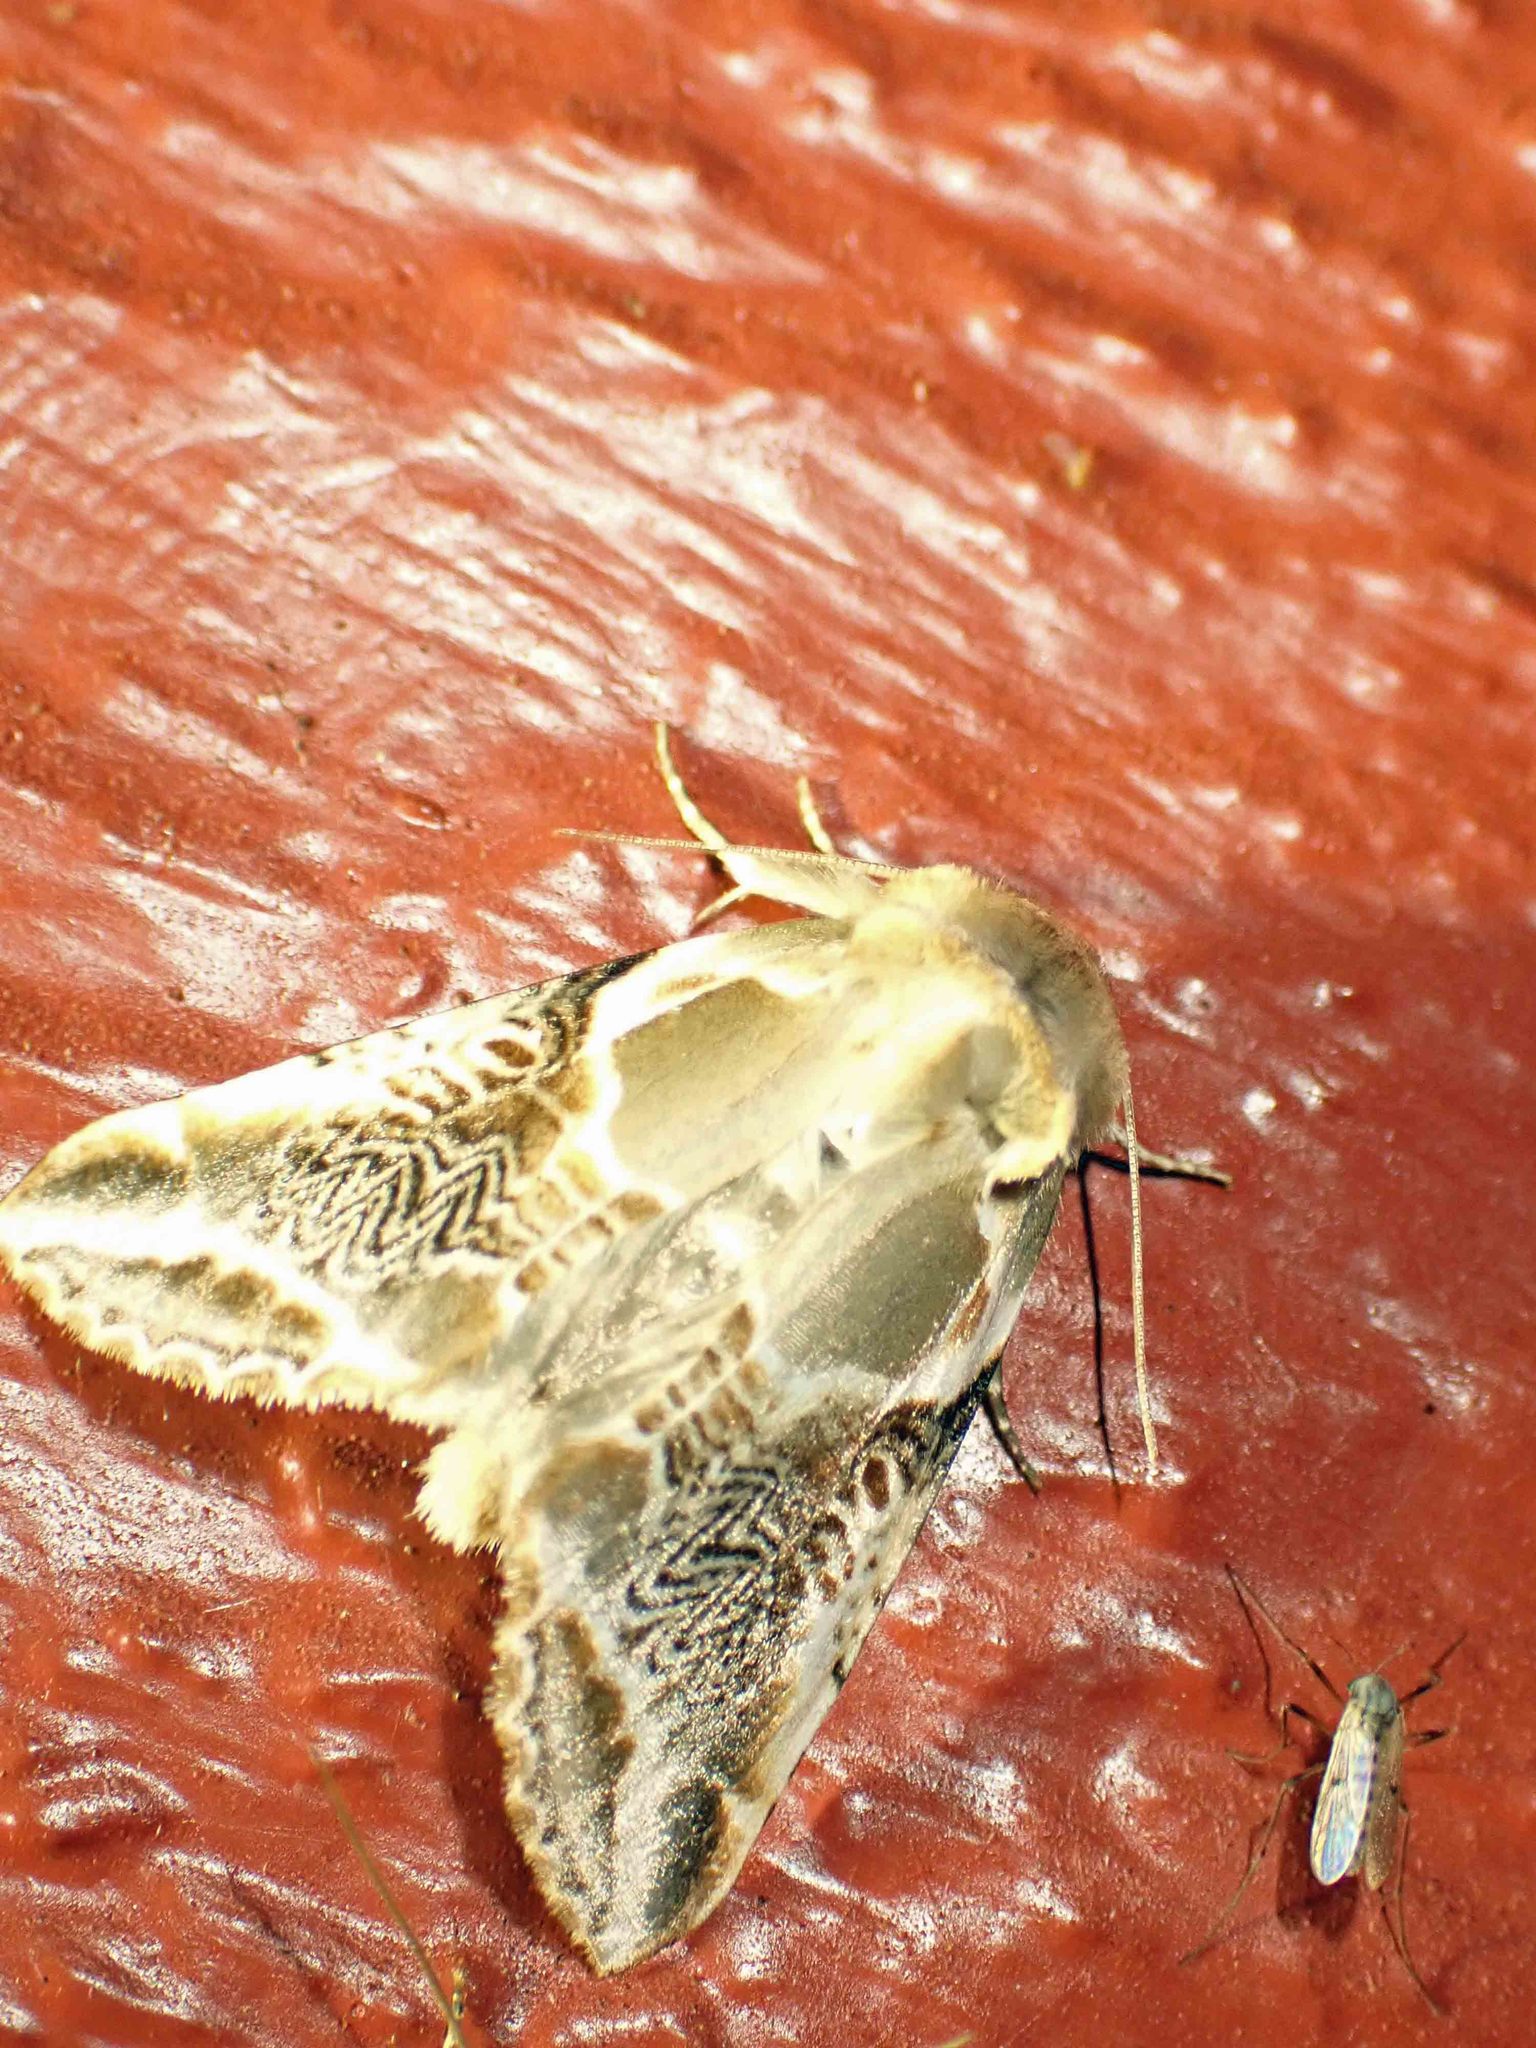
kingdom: Animalia
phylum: Arthropoda
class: Insecta
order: Lepidoptera
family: Drepanidae
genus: Habrosyne
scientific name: Habrosyne scripta
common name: Lettered habrosyne moth
